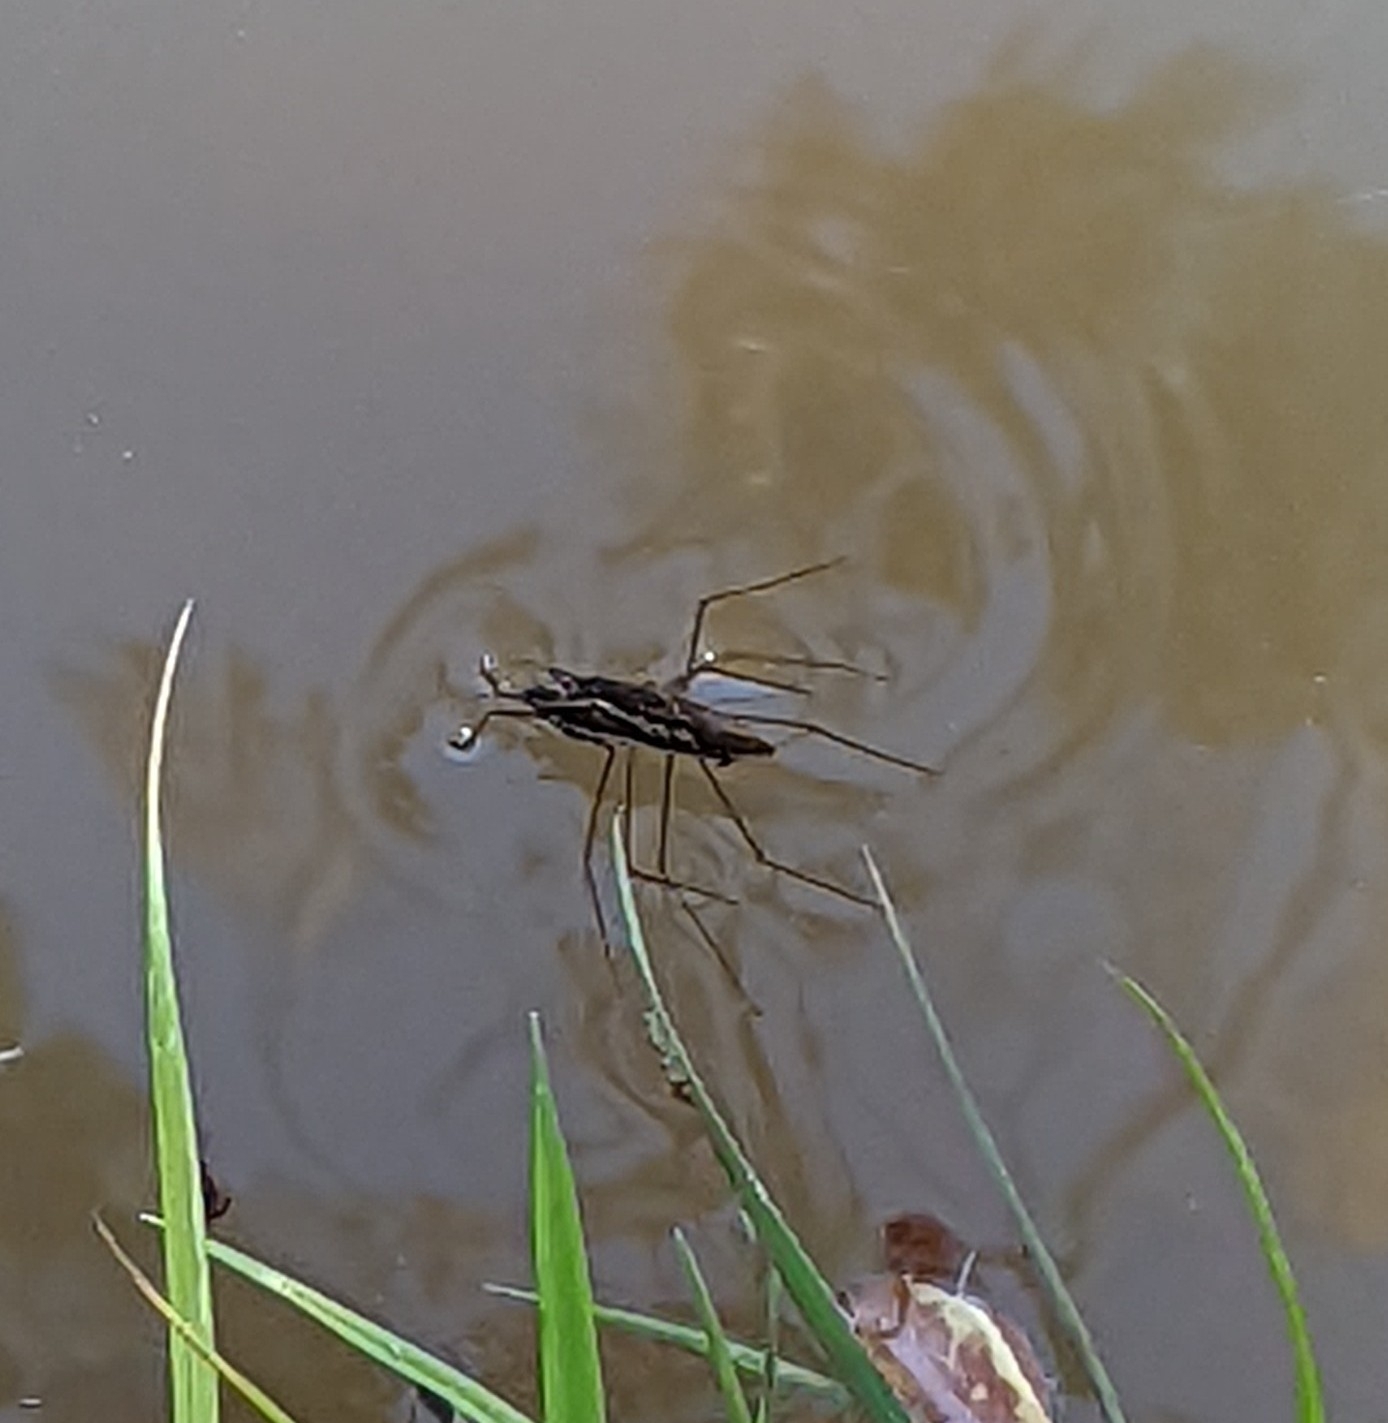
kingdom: Animalia
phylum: Arthropoda
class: Insecta
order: Hemiptera
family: Gerridae
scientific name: Gerridae
